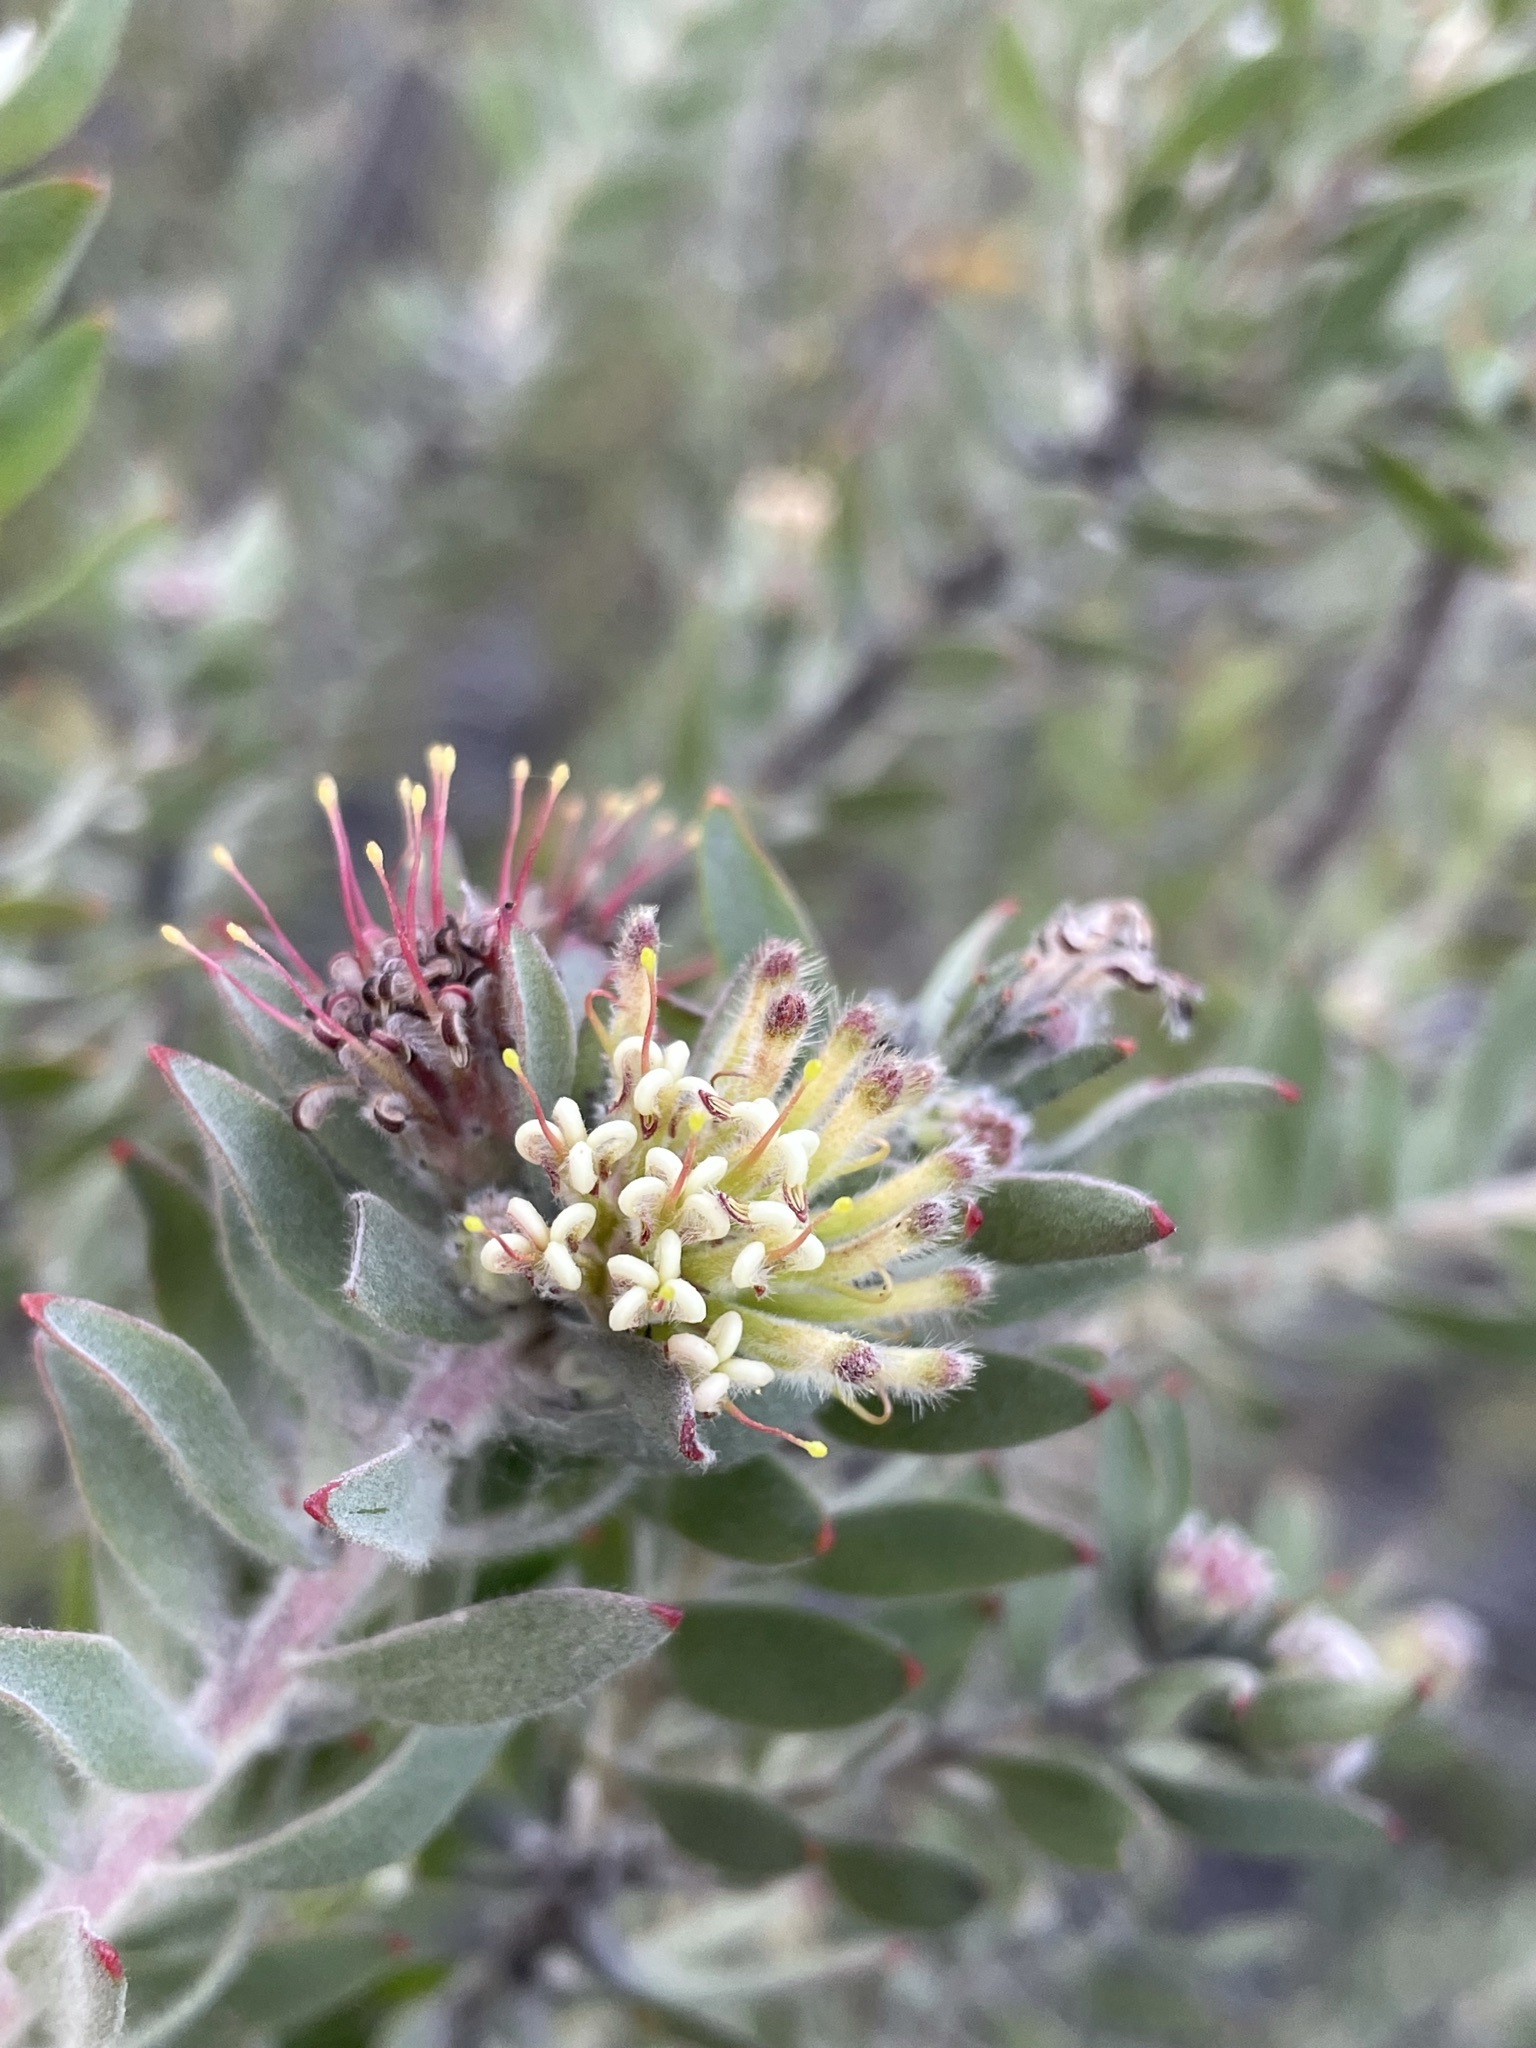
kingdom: Plantae
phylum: Tracheophyta
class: Magnoliopsida
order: Proteales
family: Proteaceae
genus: Leucospermum
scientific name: Leucospermum wittebergense
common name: Swartberg pincushion
